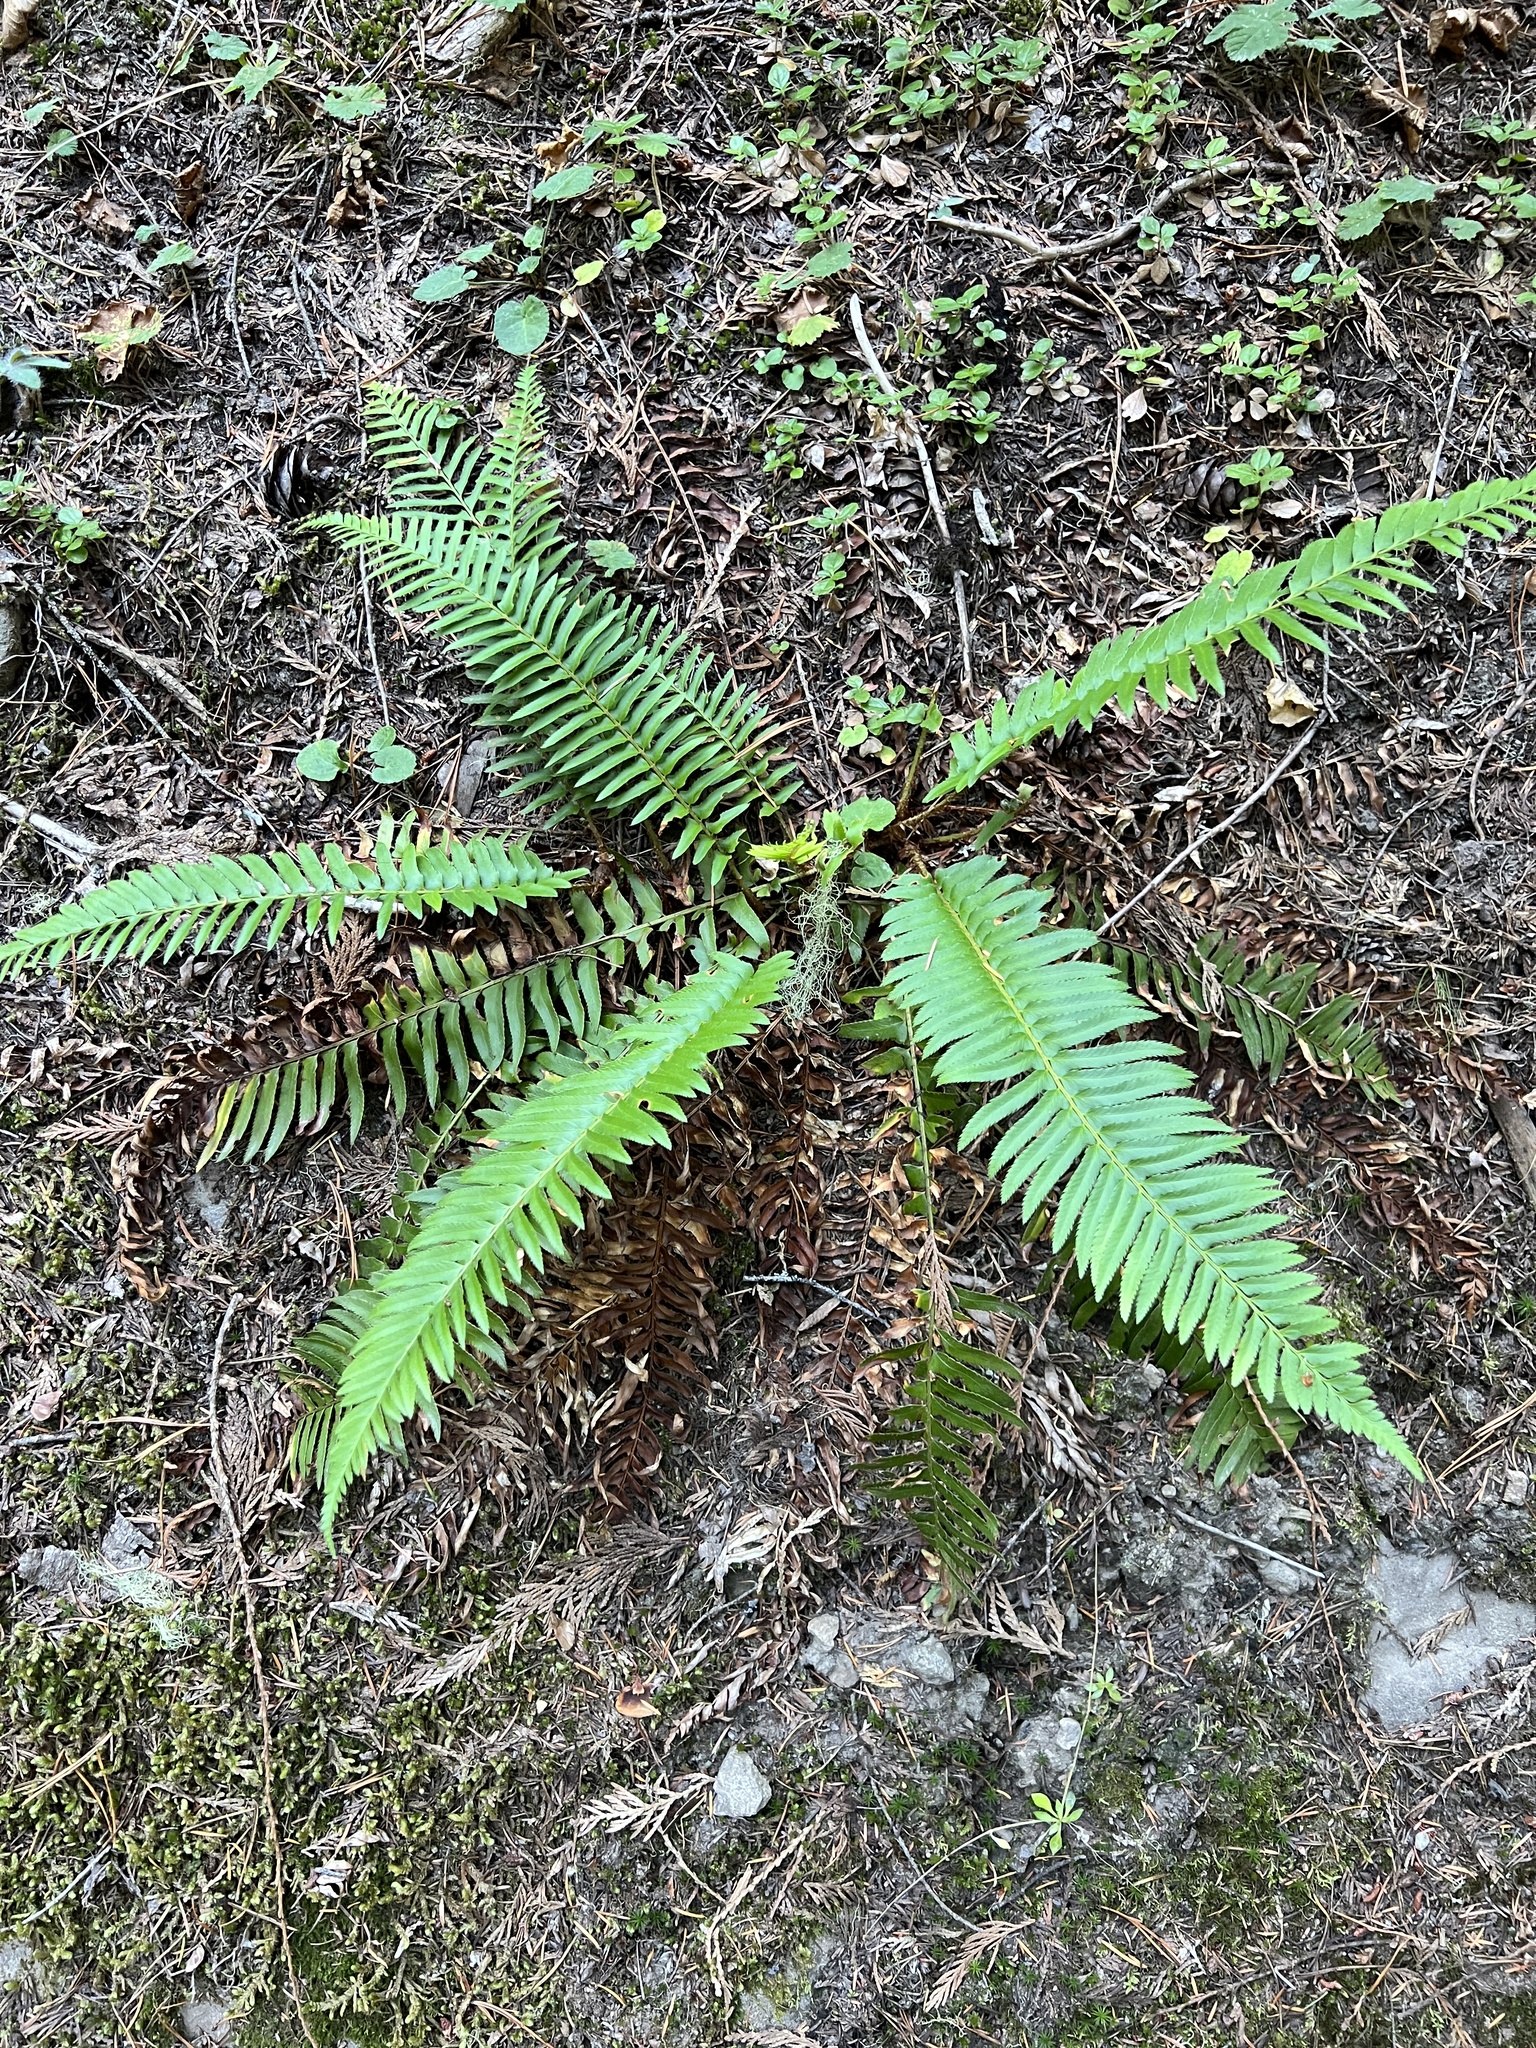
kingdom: Plantae
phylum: Tracheophyta
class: Polypodiopsida
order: Polypodiales
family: Dryopteridaceae
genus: Polystichum
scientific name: Polystichum munitum
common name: Western sword-fern
